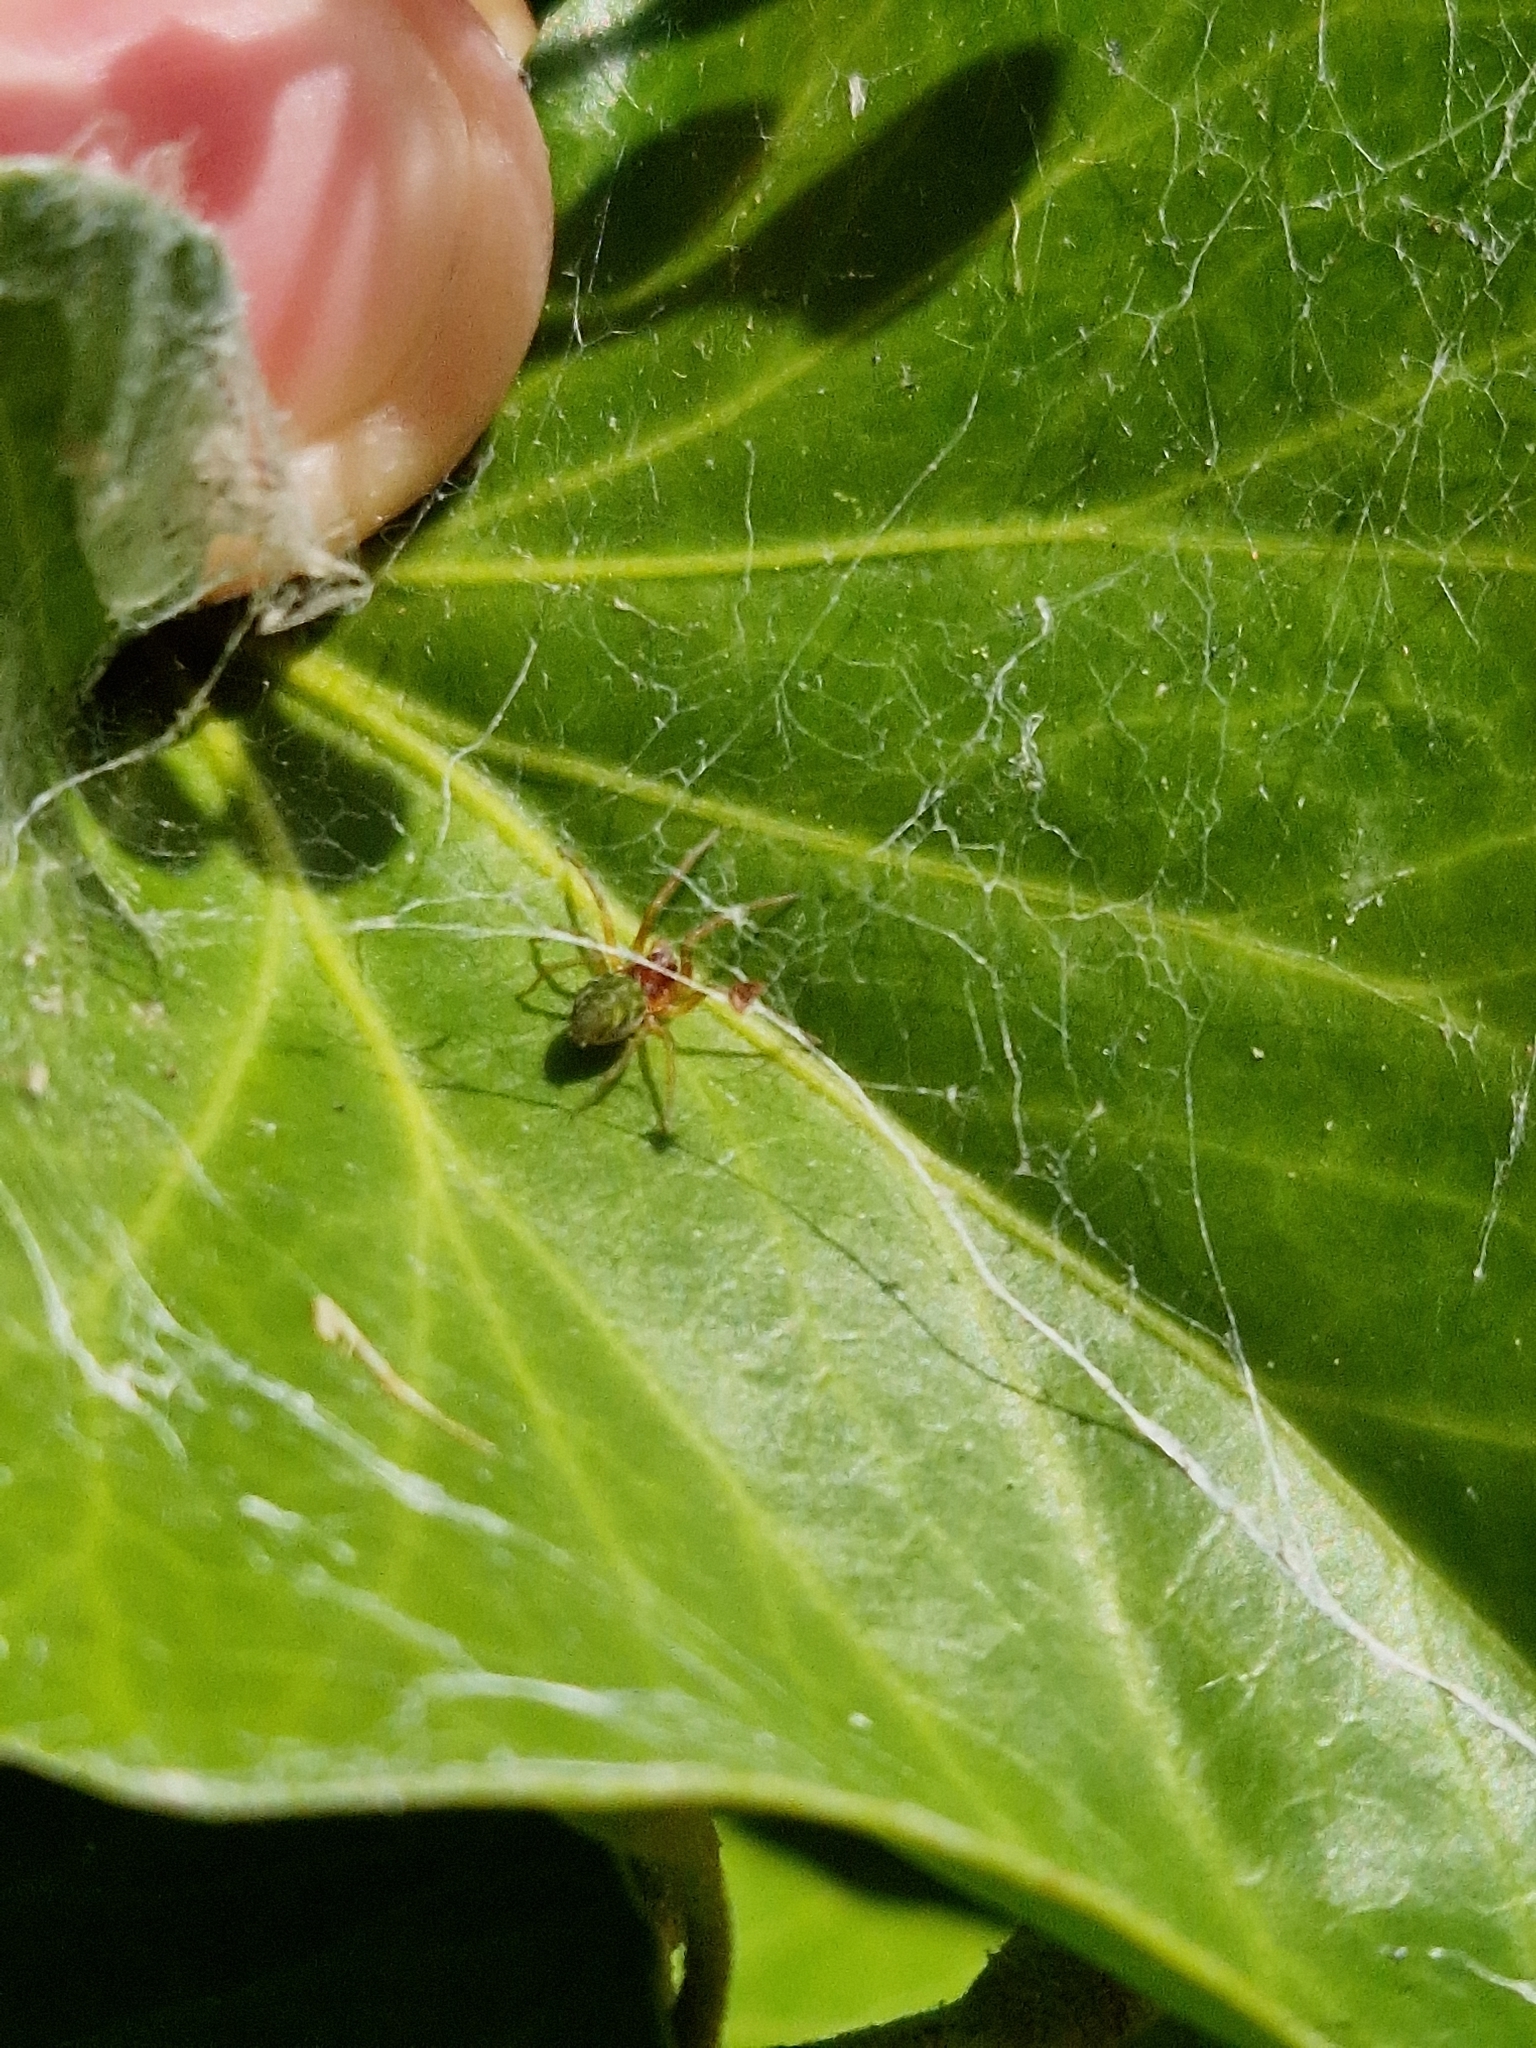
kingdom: Animalia
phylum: Arthropoda
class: Arachnida
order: Araneae
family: Dictynidae
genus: Nigma
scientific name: Nigma walckenaeri
